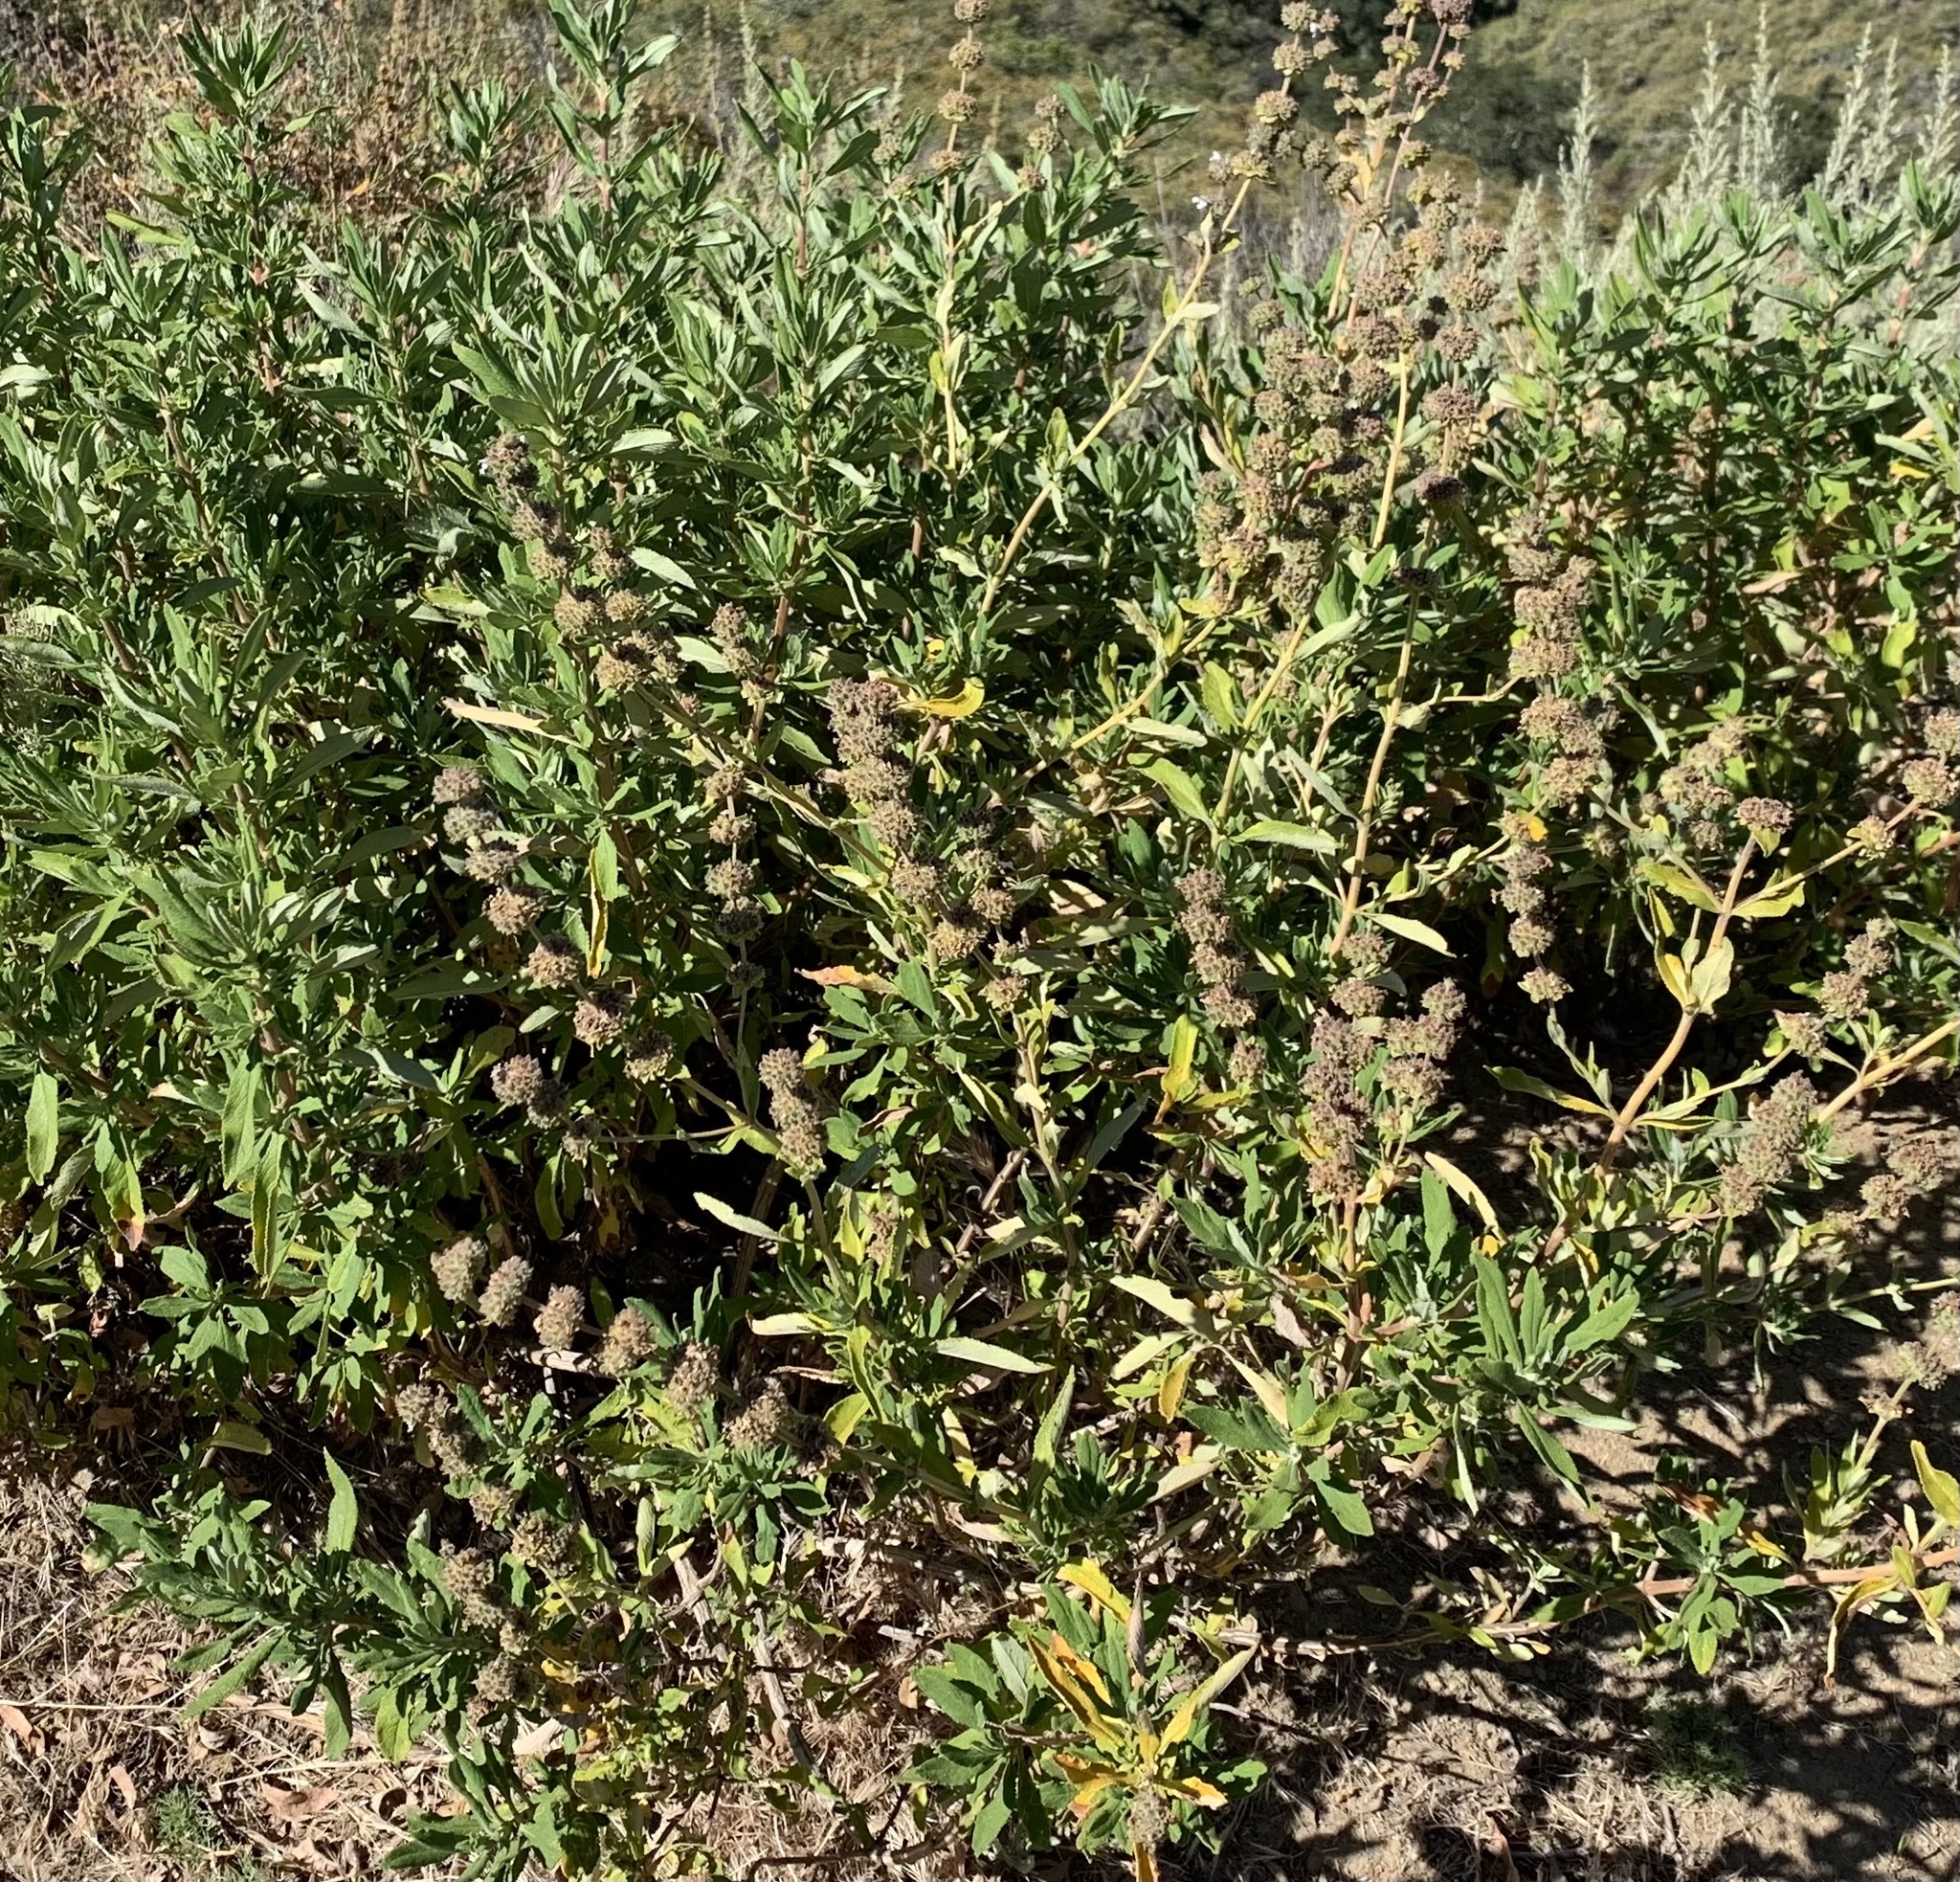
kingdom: Plantae
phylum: Tracheophyta
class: Magnoliopsida
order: Lamiales
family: Lamiaceae
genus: Salvia
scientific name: Salvia mellifera
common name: Black sage
